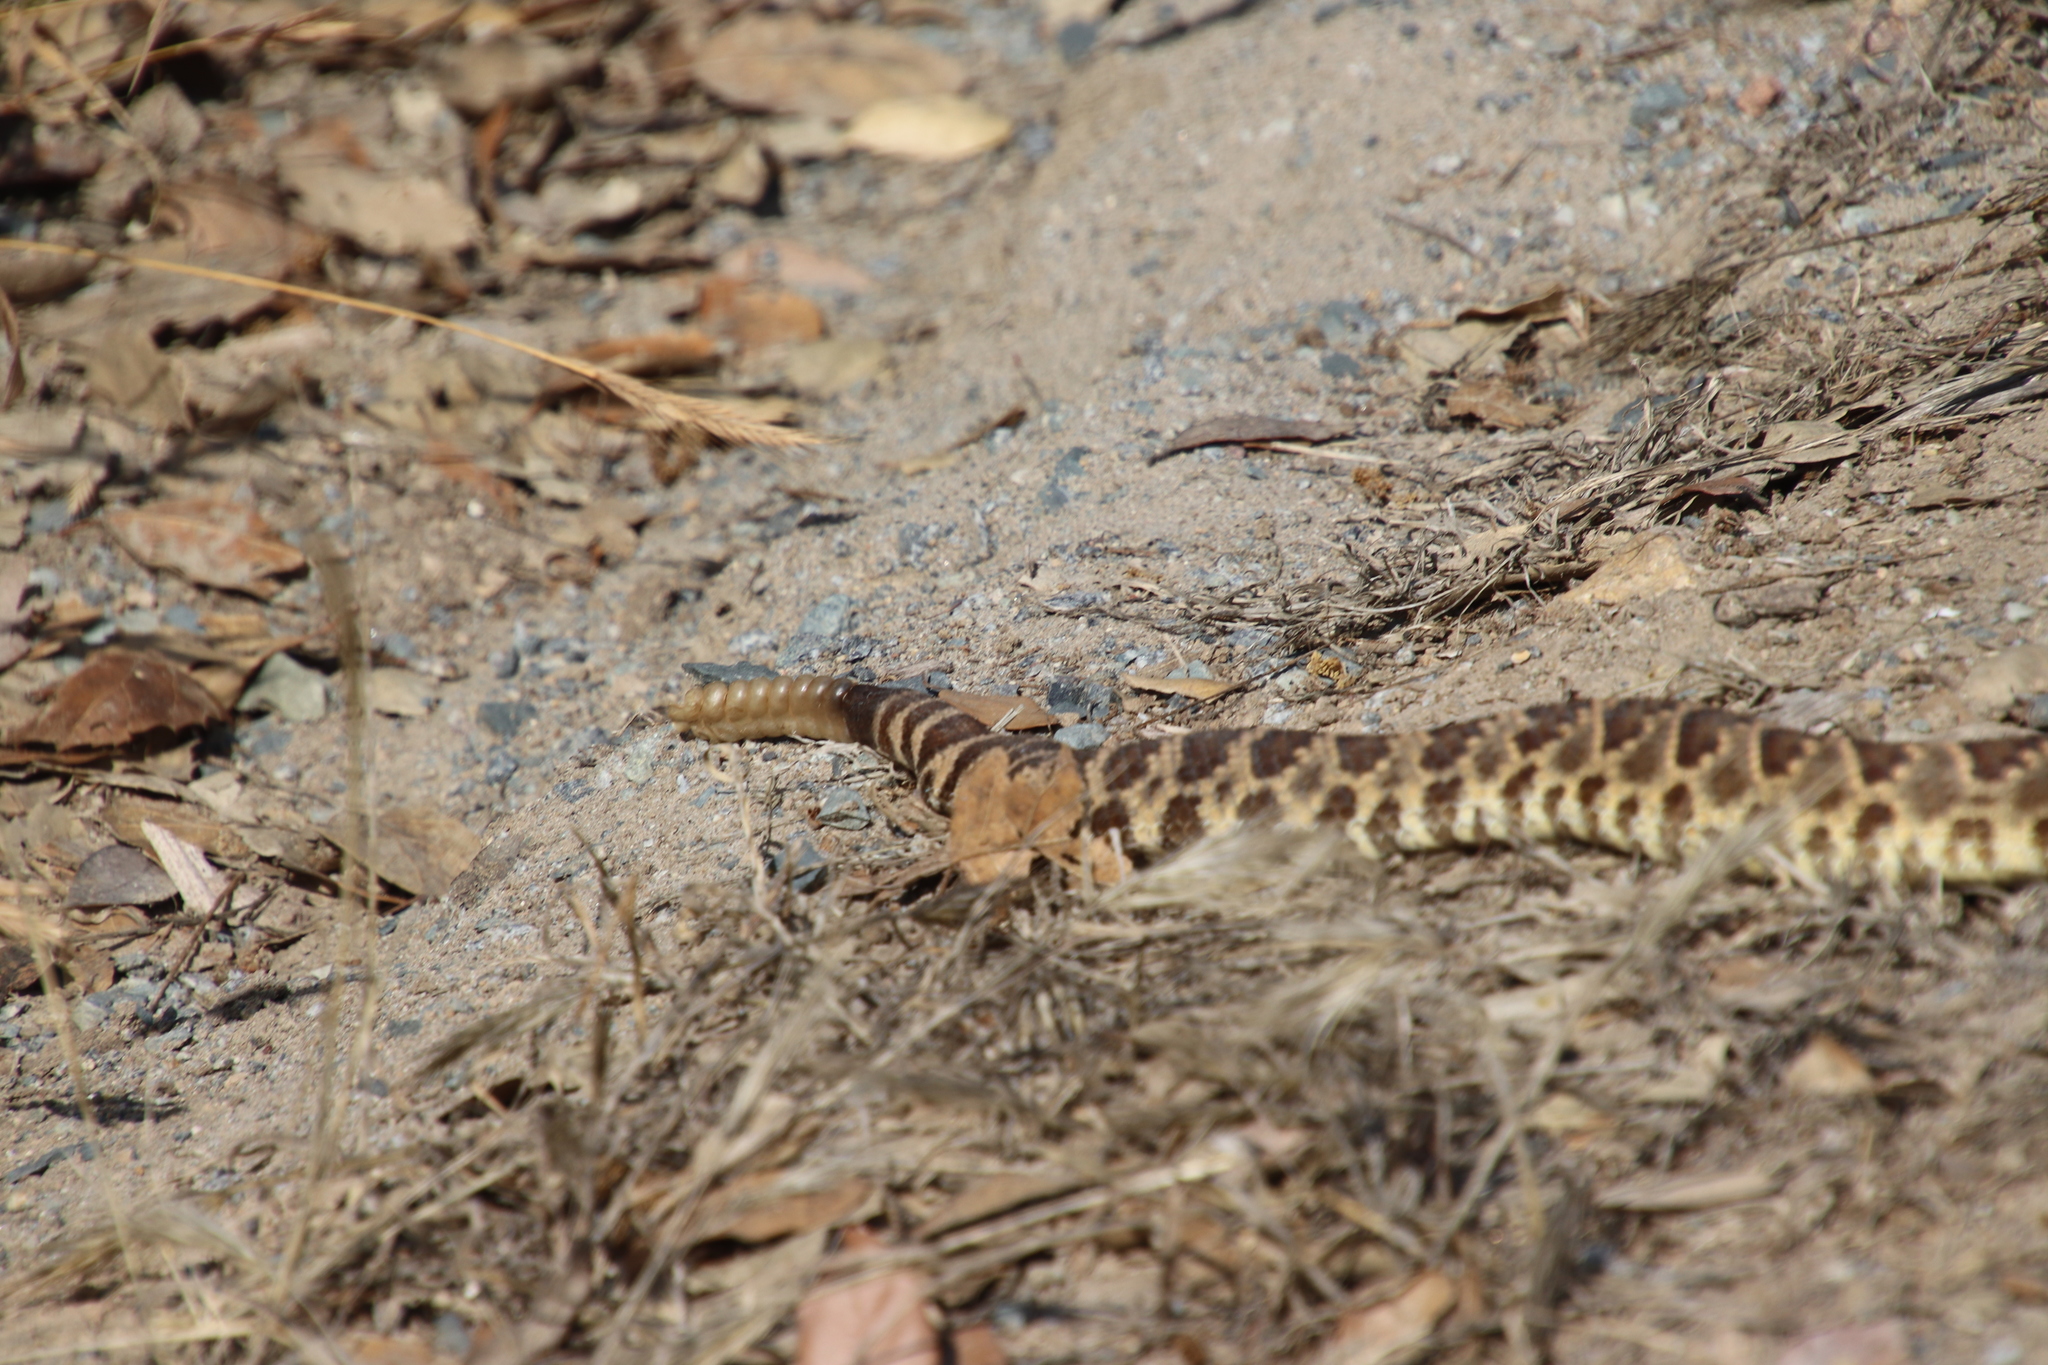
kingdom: Animalia
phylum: Chordata
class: Squamata
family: Viperidae
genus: Crotalus
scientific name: Crotalus oreganus
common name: Abyssus
